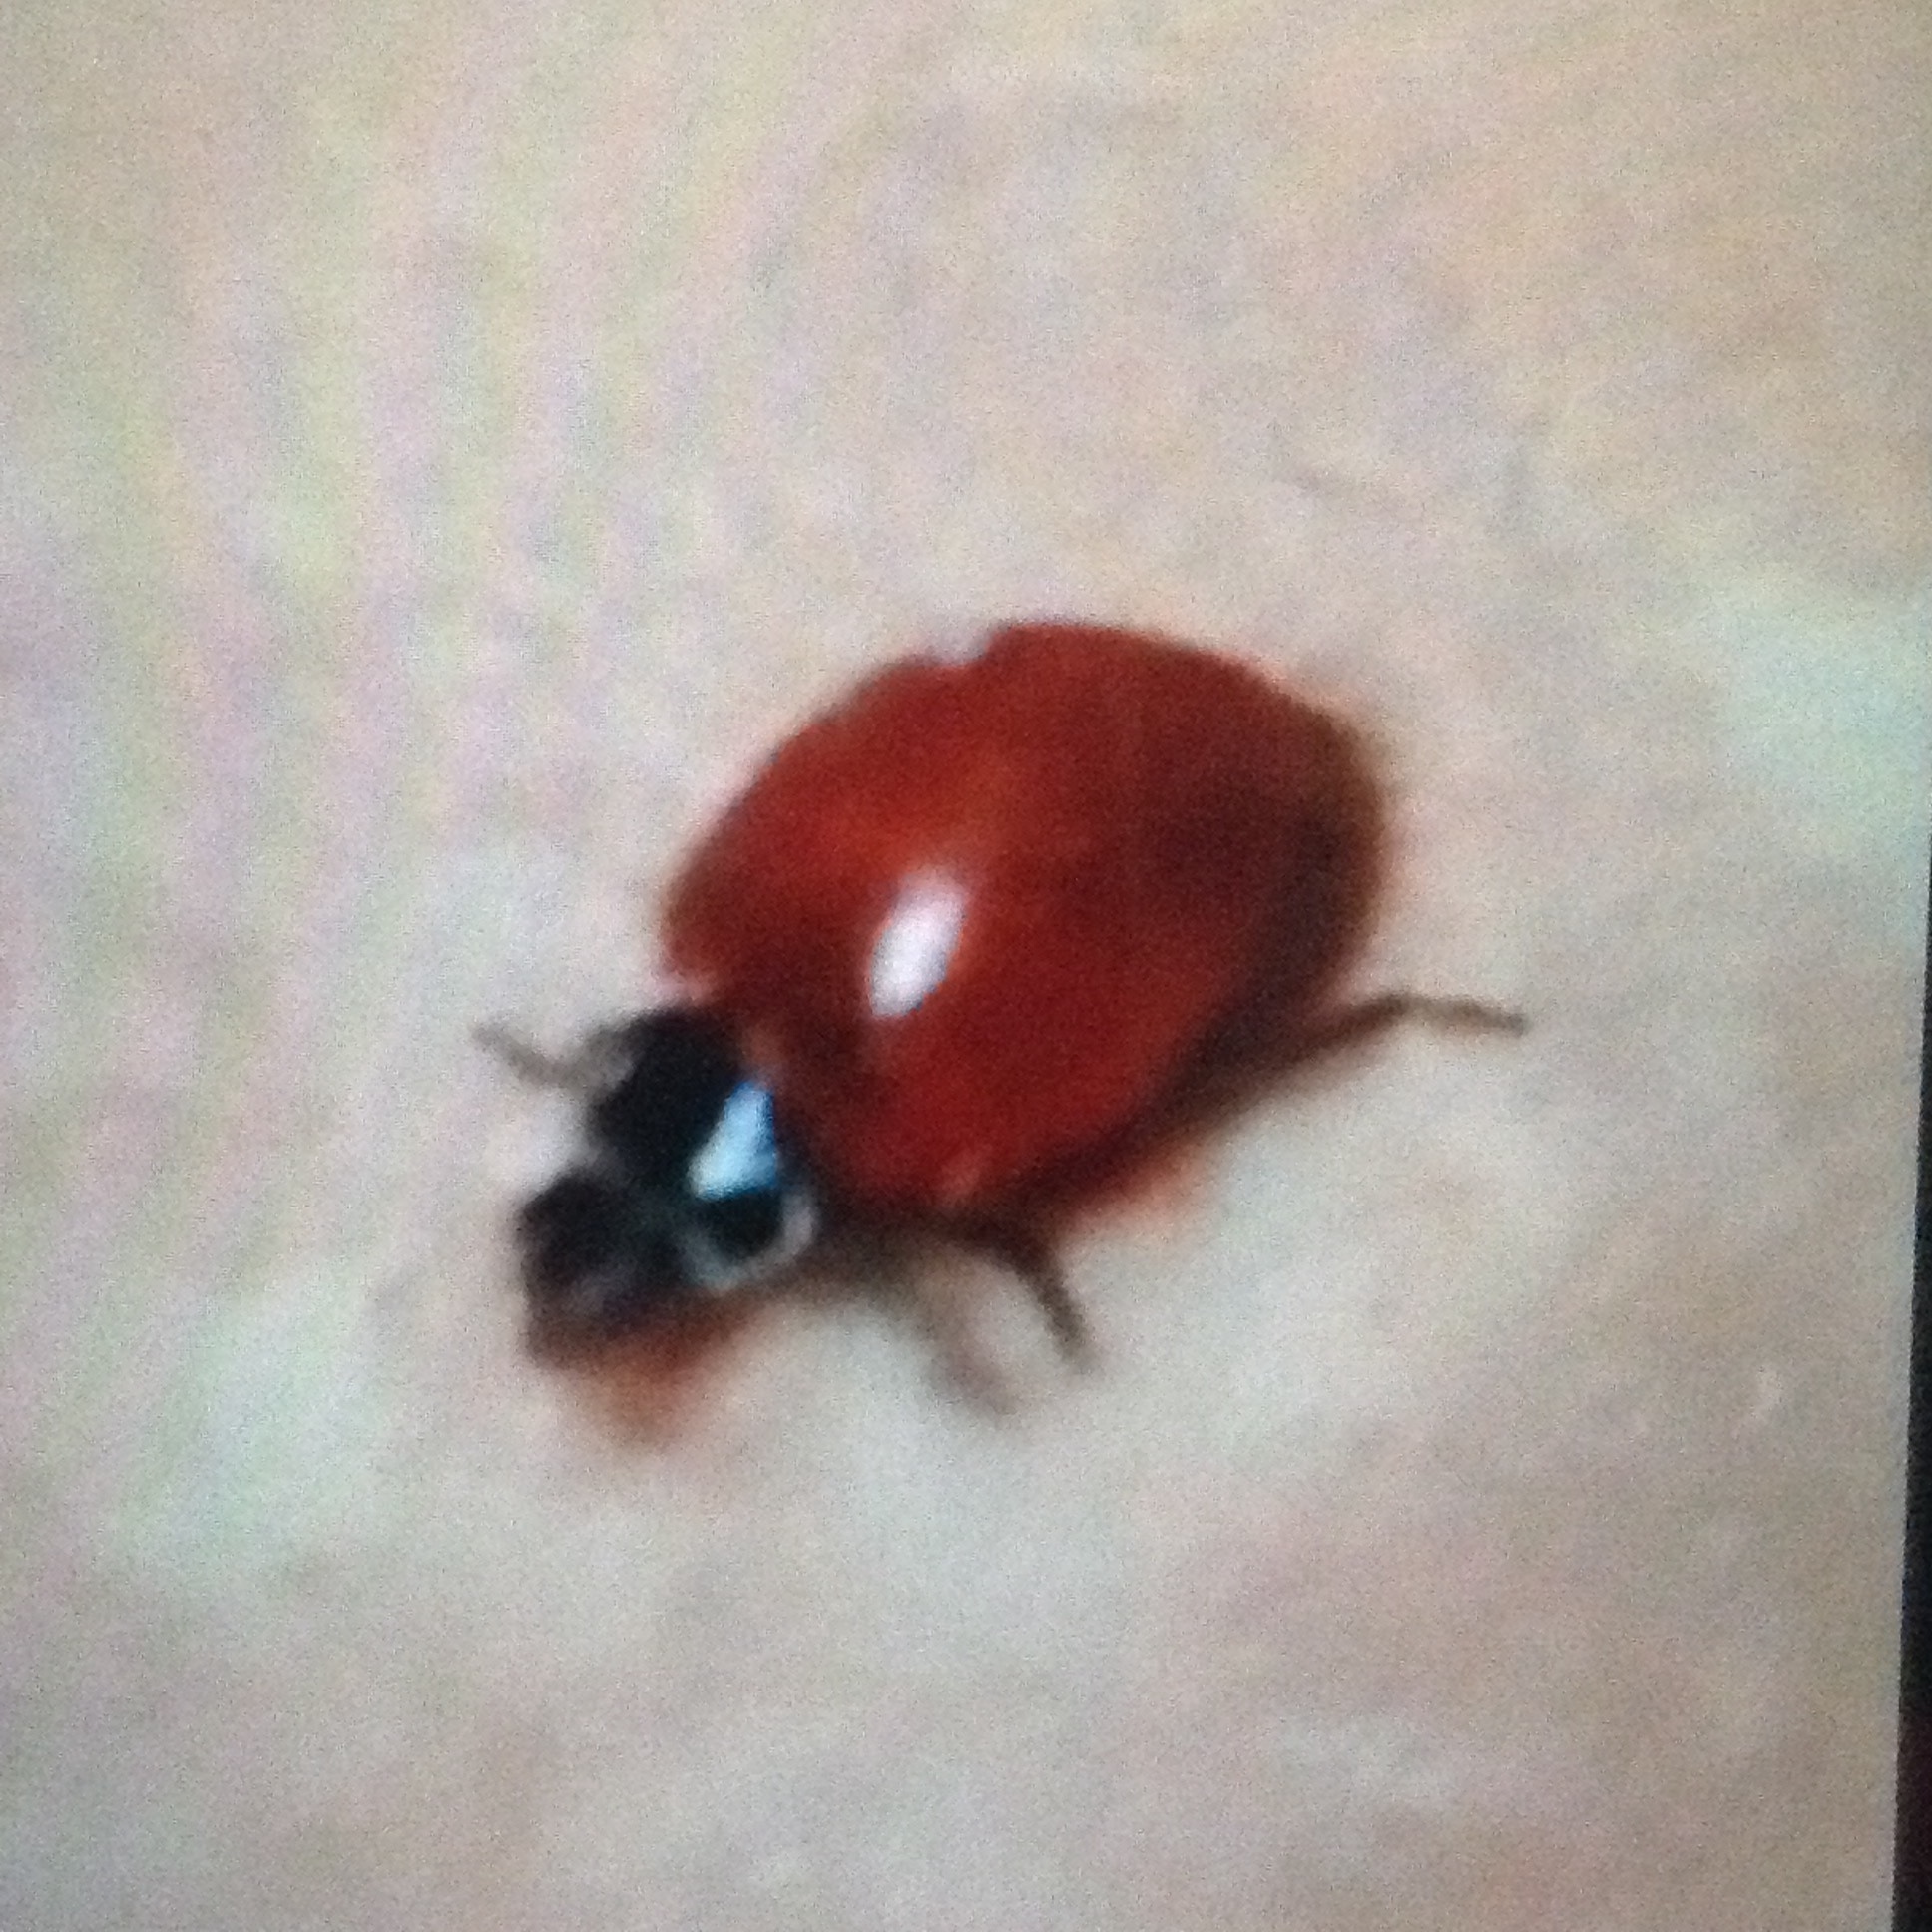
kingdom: Animalia
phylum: Arthropoda
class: Insecta
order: Coleoptera
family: Coccinellidae
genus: Cycloneda
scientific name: Cycloneda emarginata
